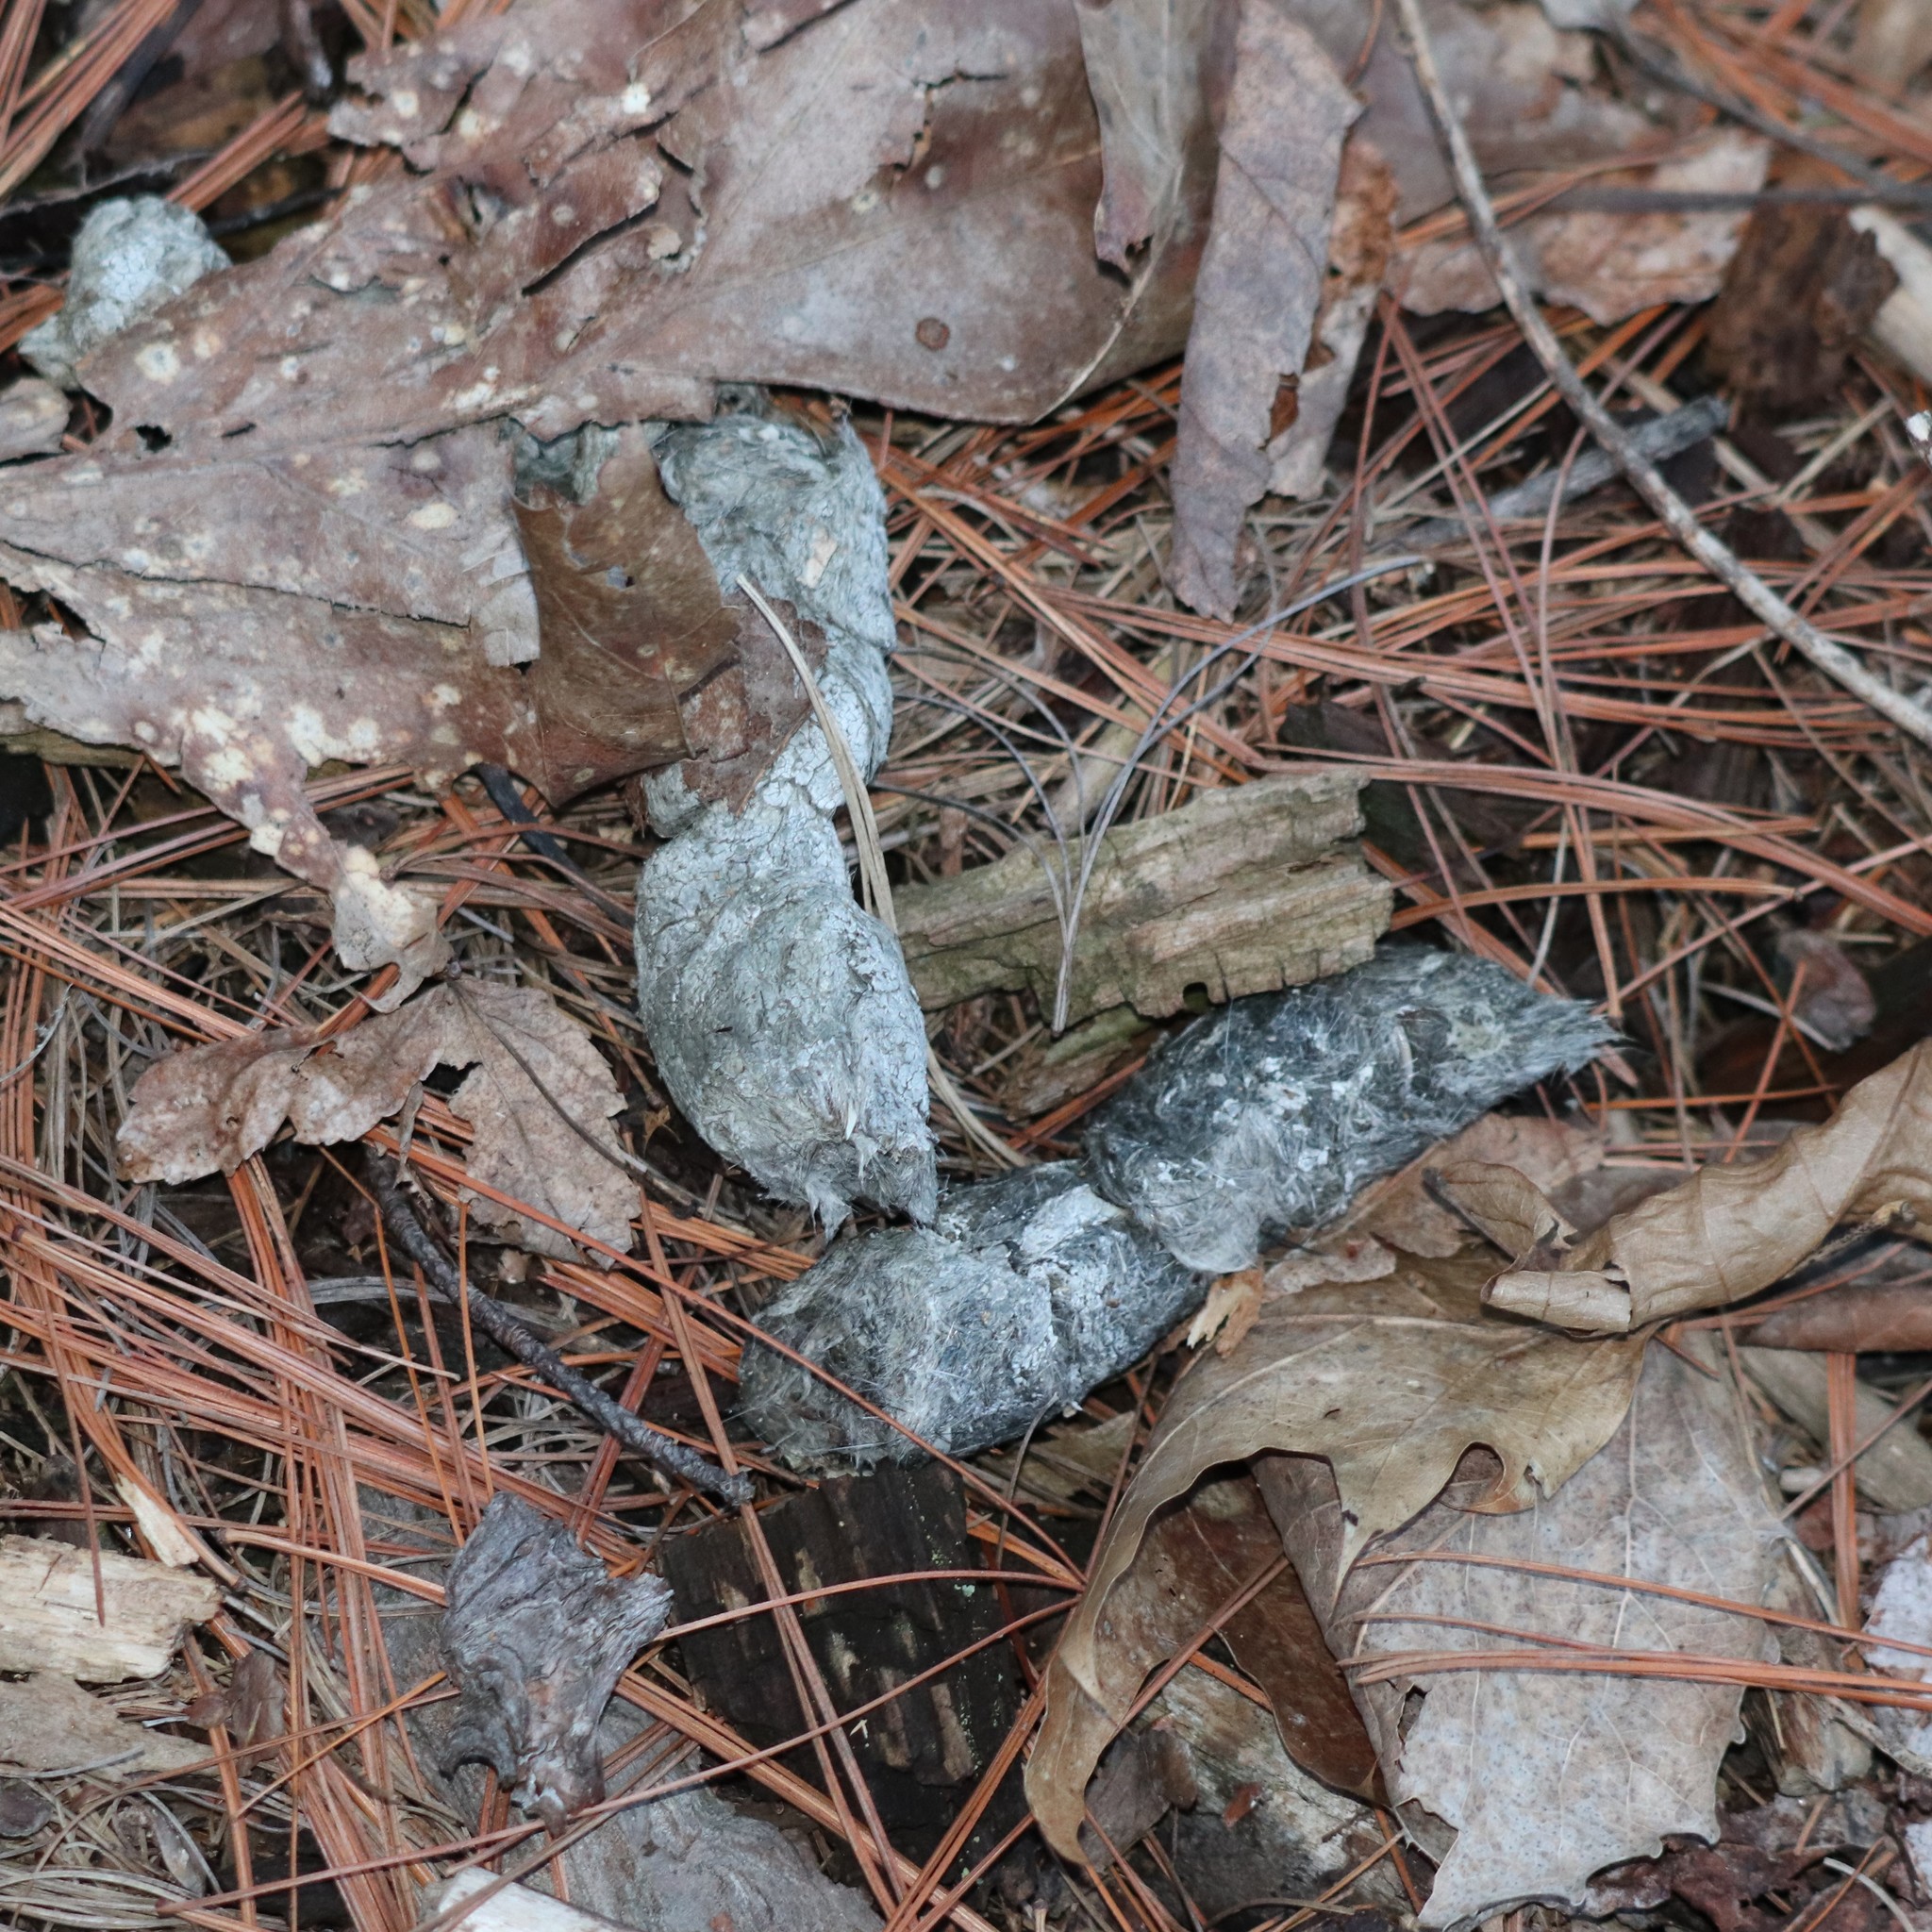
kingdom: Animalia
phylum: Chordata
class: Mammalia
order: Carnivora
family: Canidae
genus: Canis
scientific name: Canis latrans
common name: Coyote
